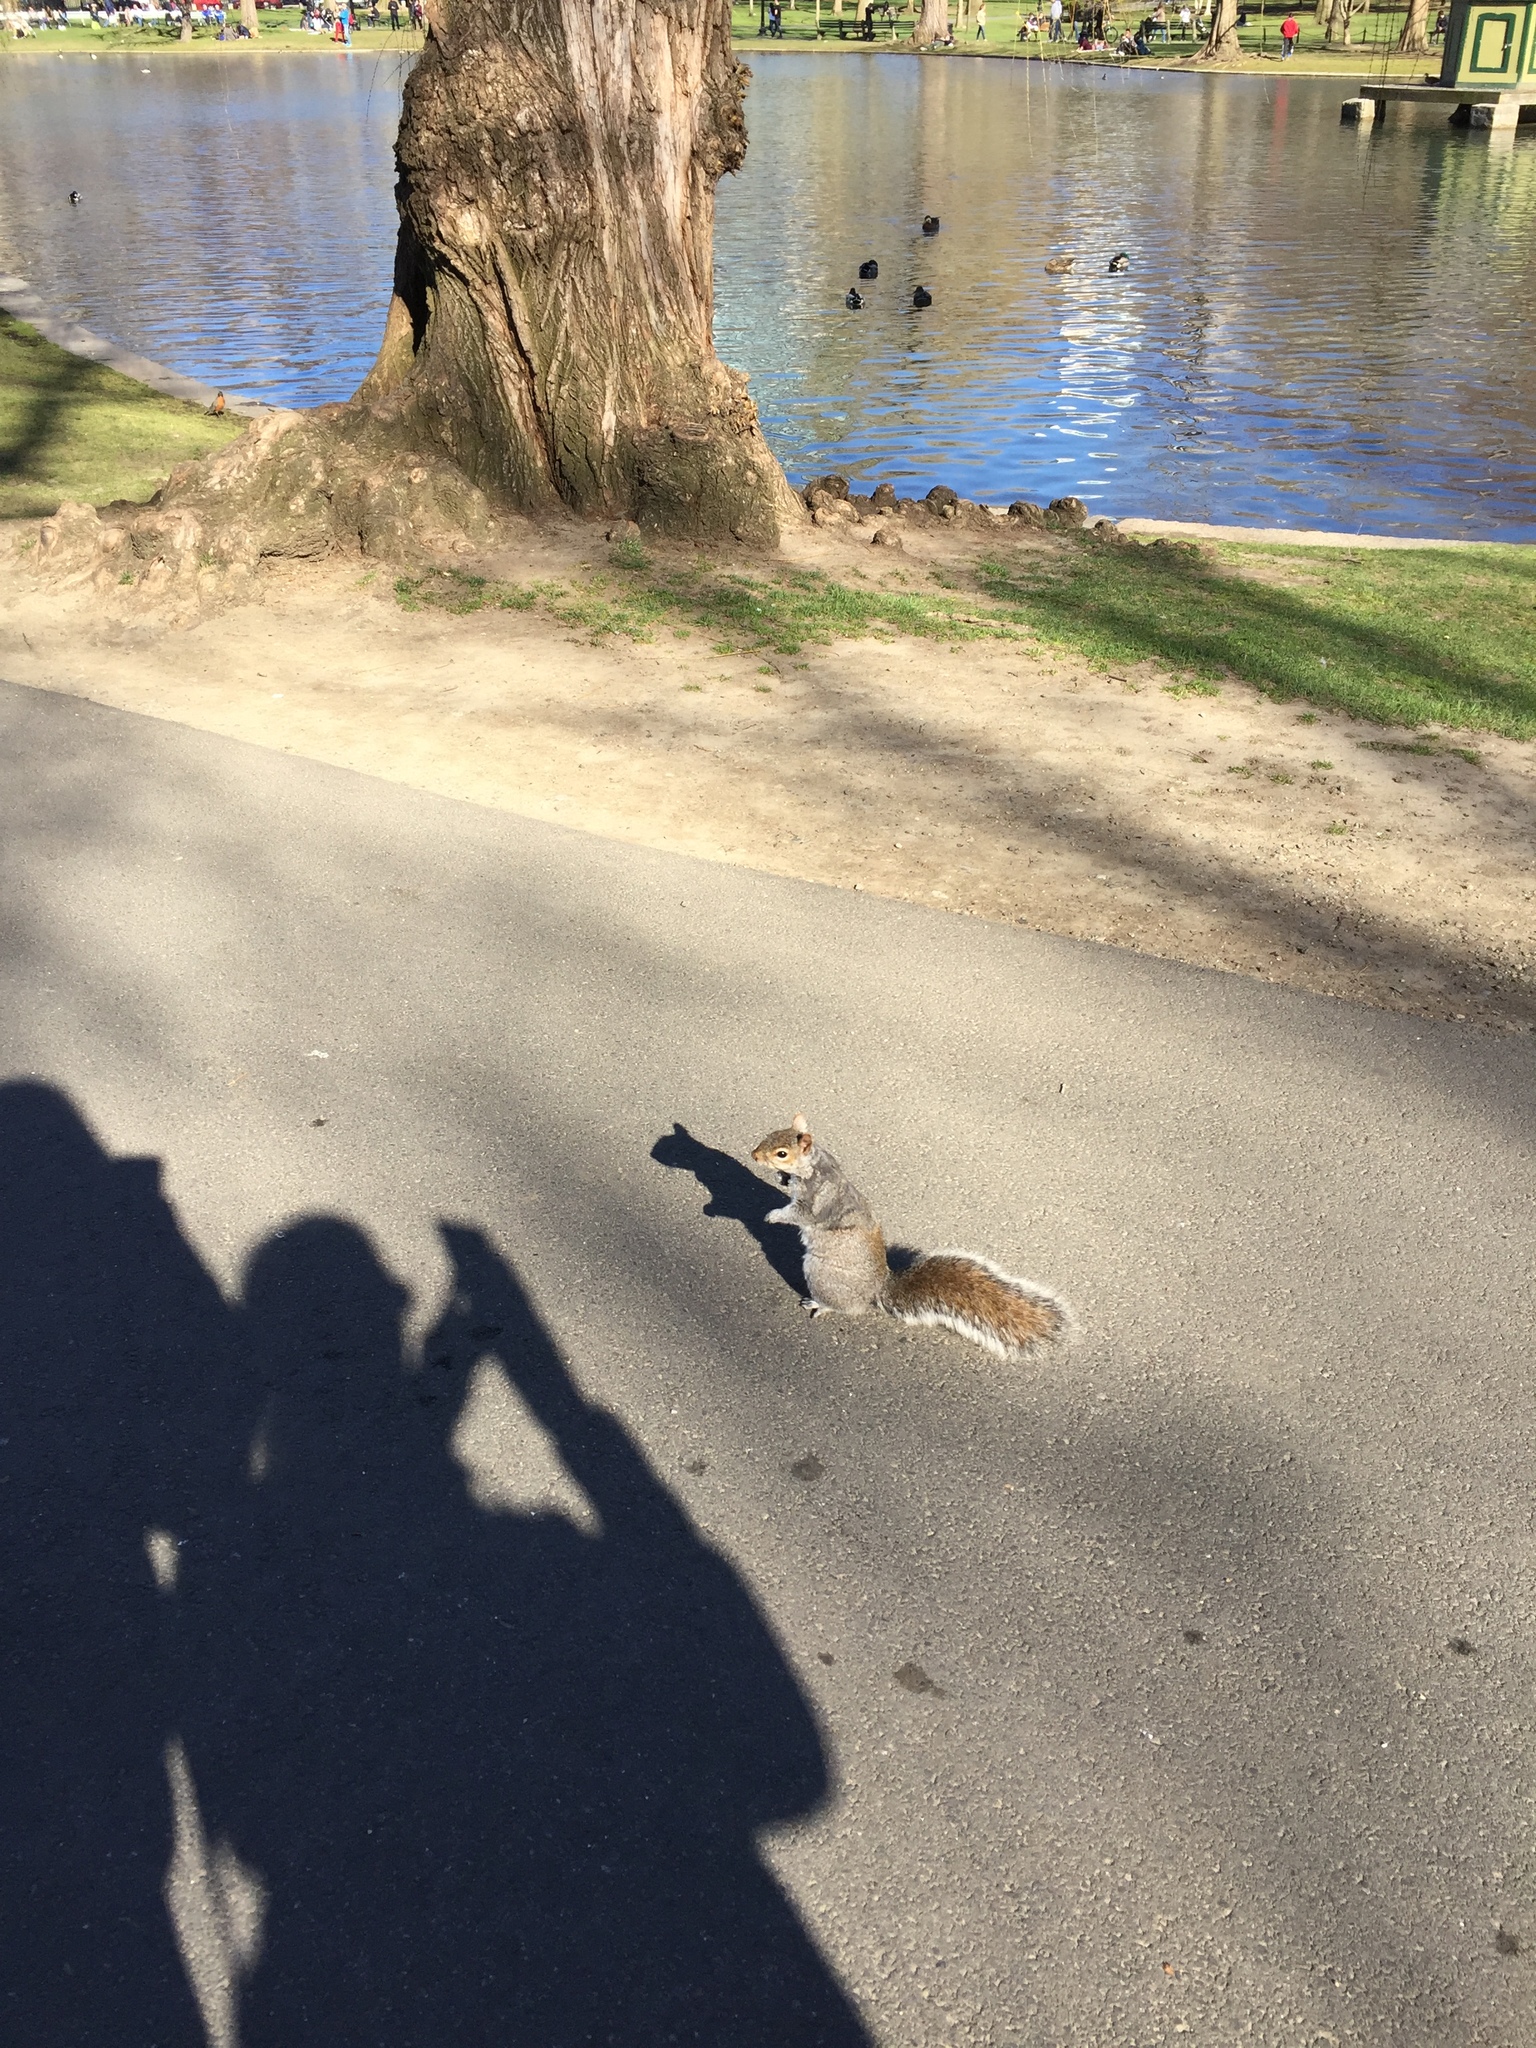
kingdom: Animalia
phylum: Chordata
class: Mammalia
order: Rodentia
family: Sciuridae
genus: Sciurus
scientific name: Sciurus carolinensis
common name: Eastern gray squirrel
